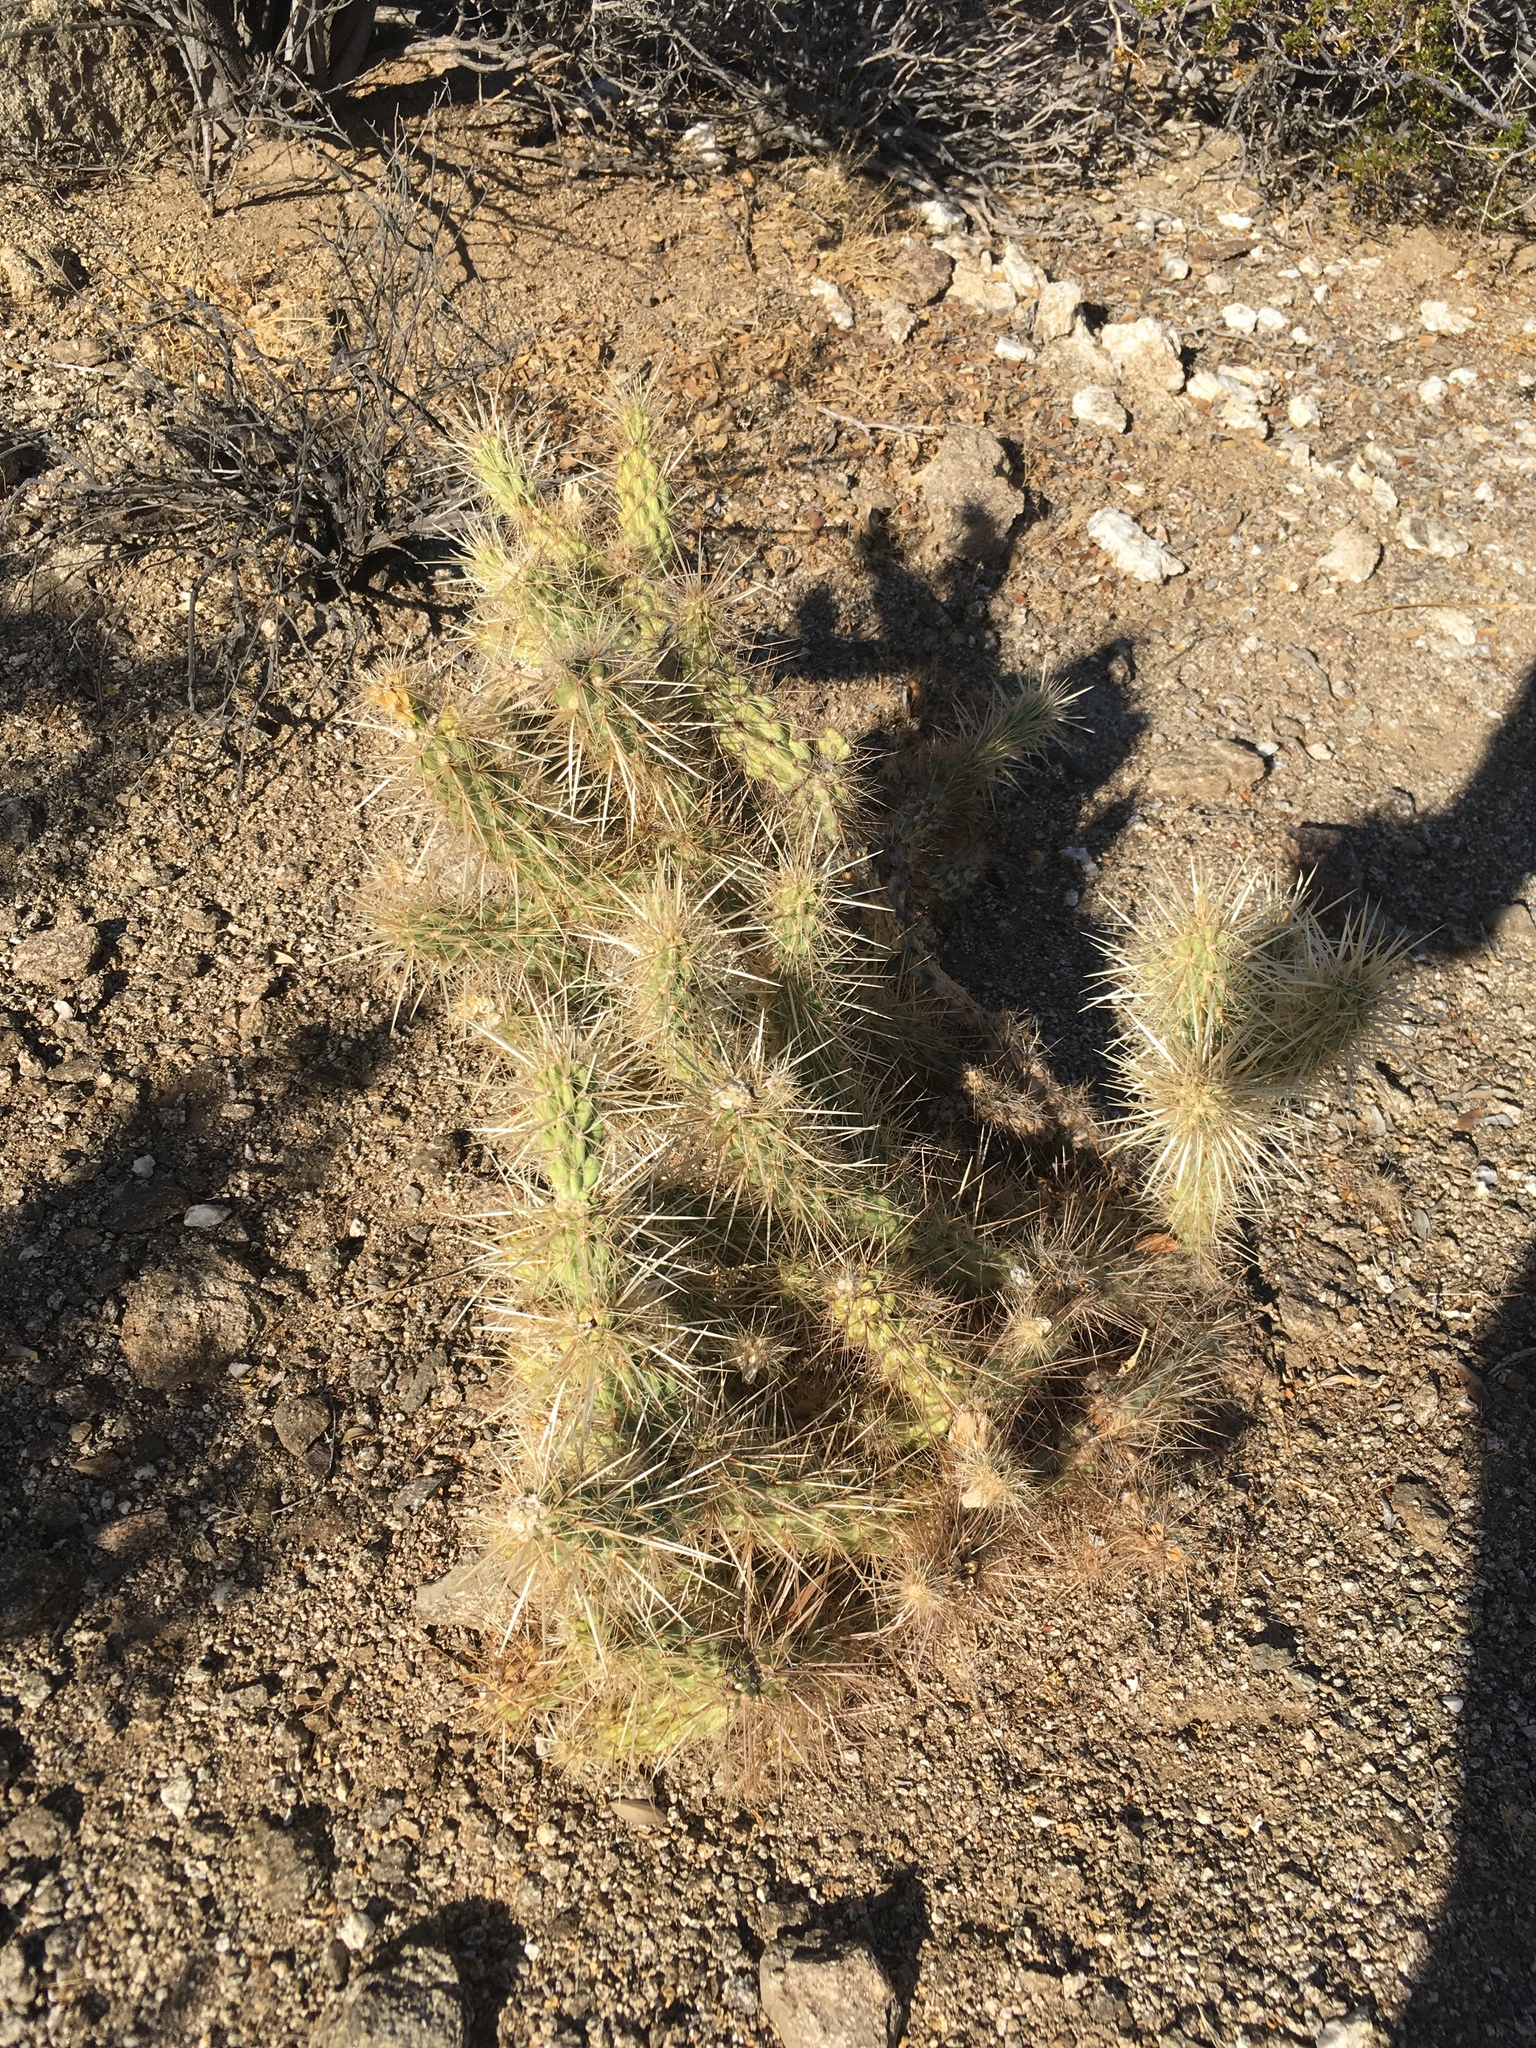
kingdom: Plantae
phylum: Tracheophyta
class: Magnoliopsida
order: Caryophyllales
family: Cactaceae
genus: Cylindropuntia
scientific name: Cylindropuntia echinocarpa
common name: Ground cholla
